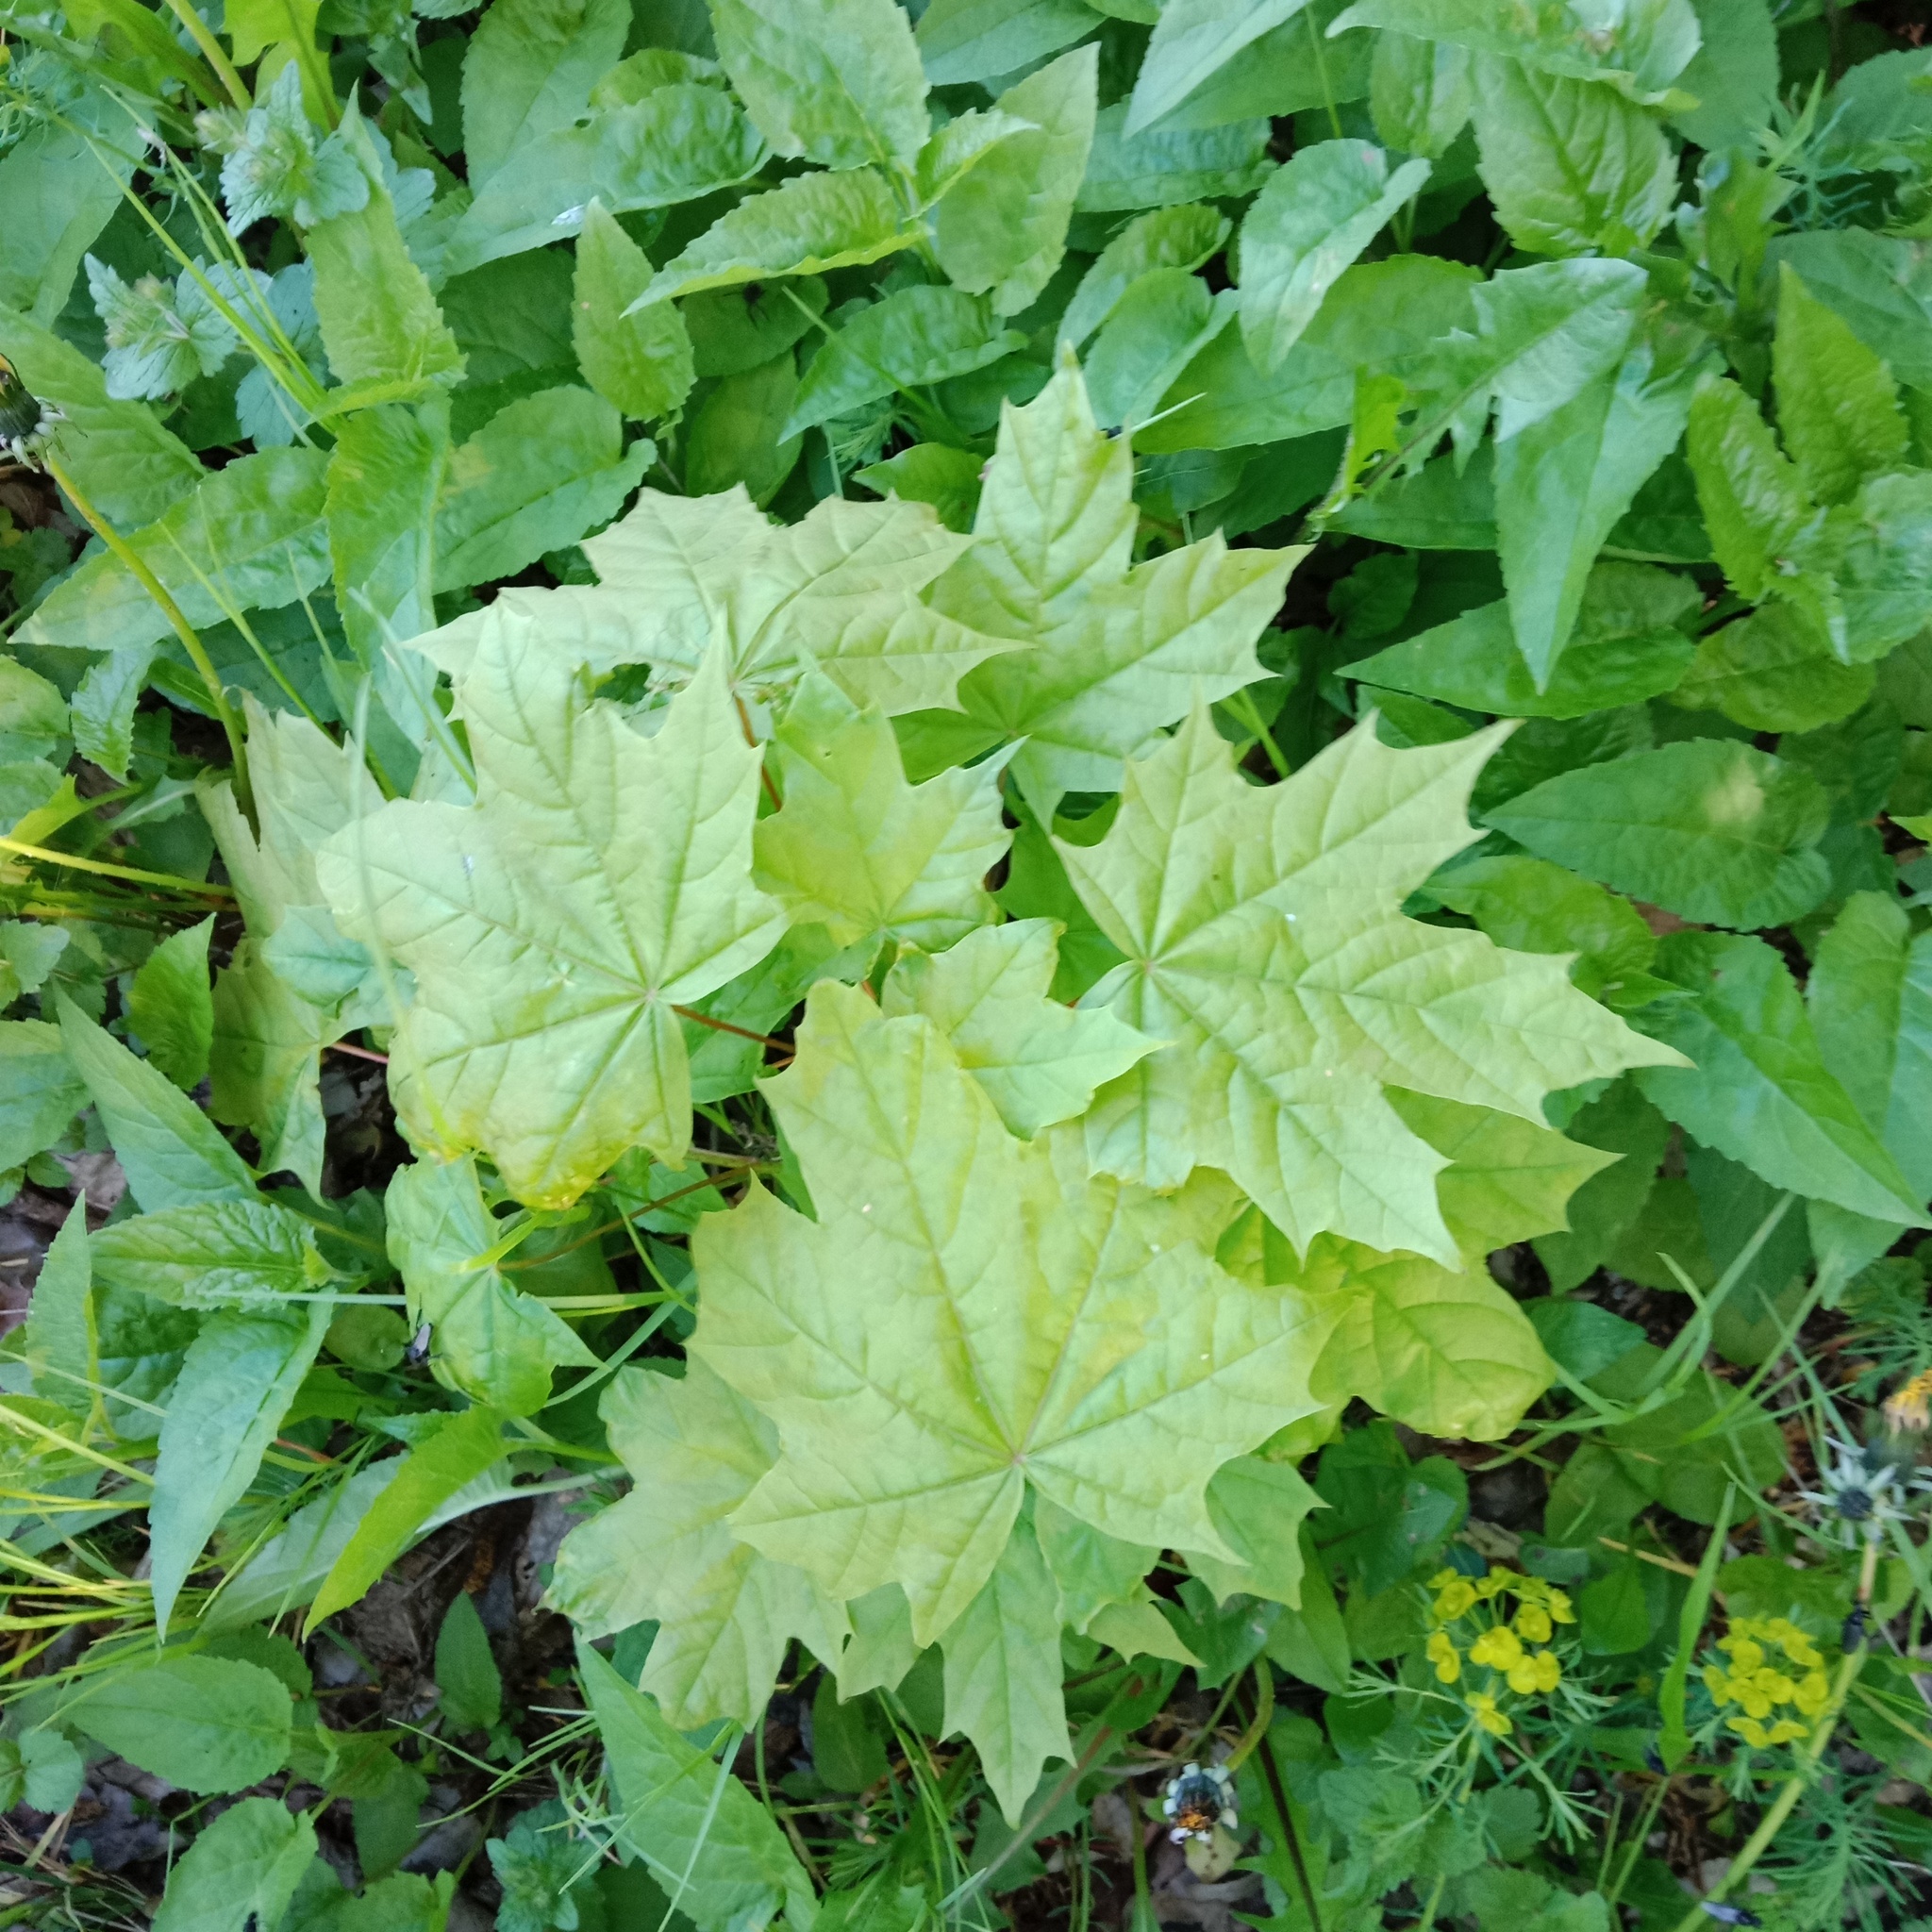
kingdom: Plantae
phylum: Tracheophyta
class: Magnoliopsida
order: Sapindales
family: Sapindaceae
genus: Acer
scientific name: Acer platanoides
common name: Norway maple
